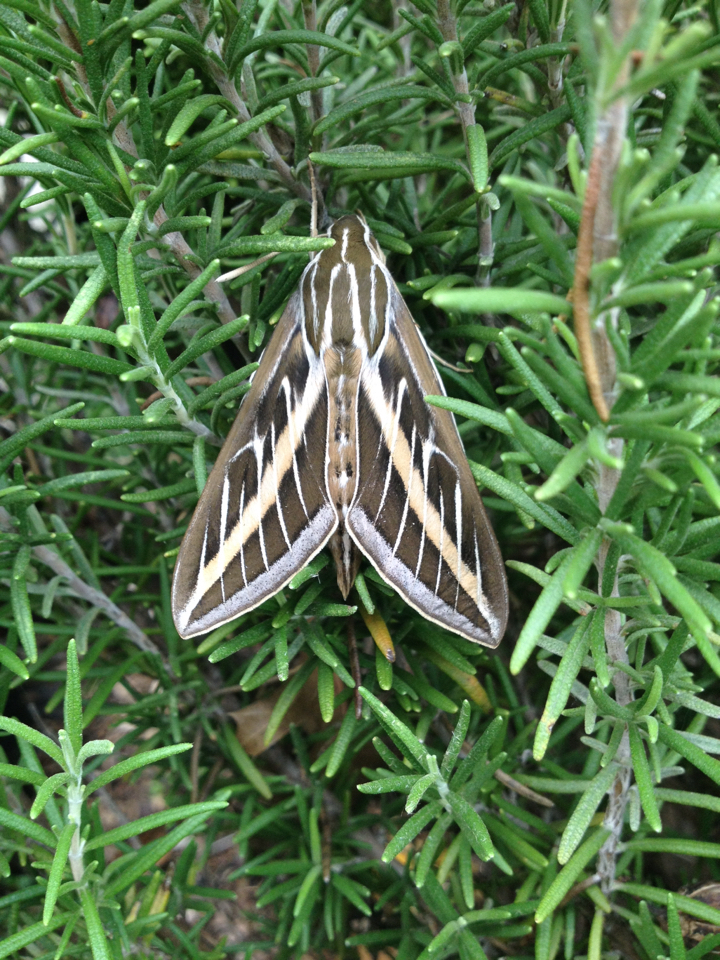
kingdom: Animalia
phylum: Arthropoda
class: Insecta
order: Lepidoptera
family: Sphingidae
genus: Hyles
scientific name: Hyles lineata
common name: White-lined sphinx
